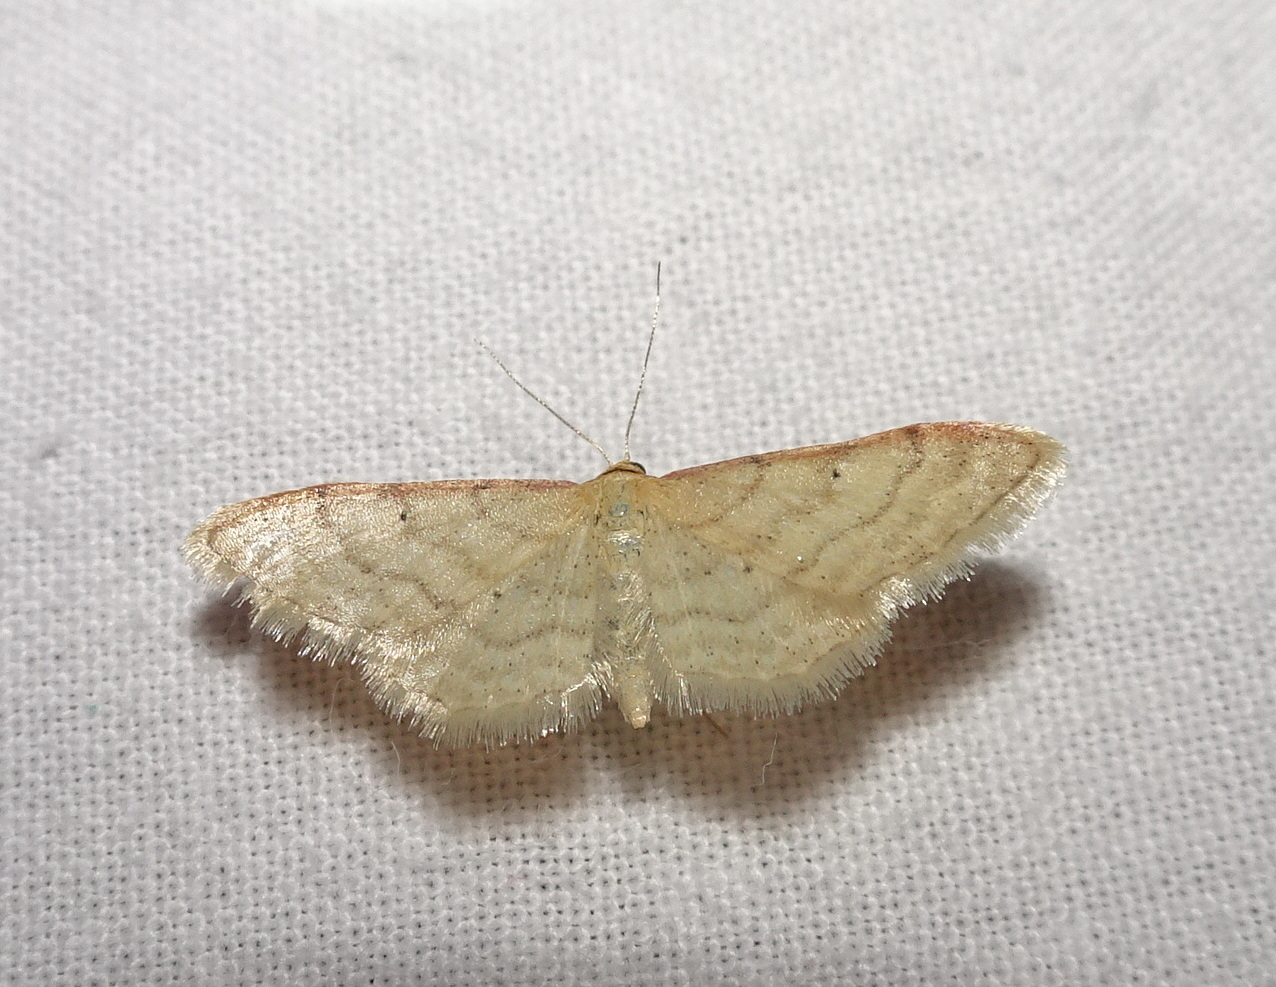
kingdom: Animalia
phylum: Arthropoda
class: Insecta
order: Lepidoptera
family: Geometridae
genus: Idaea
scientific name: Idaea humiliata
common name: Isle of wight wave
